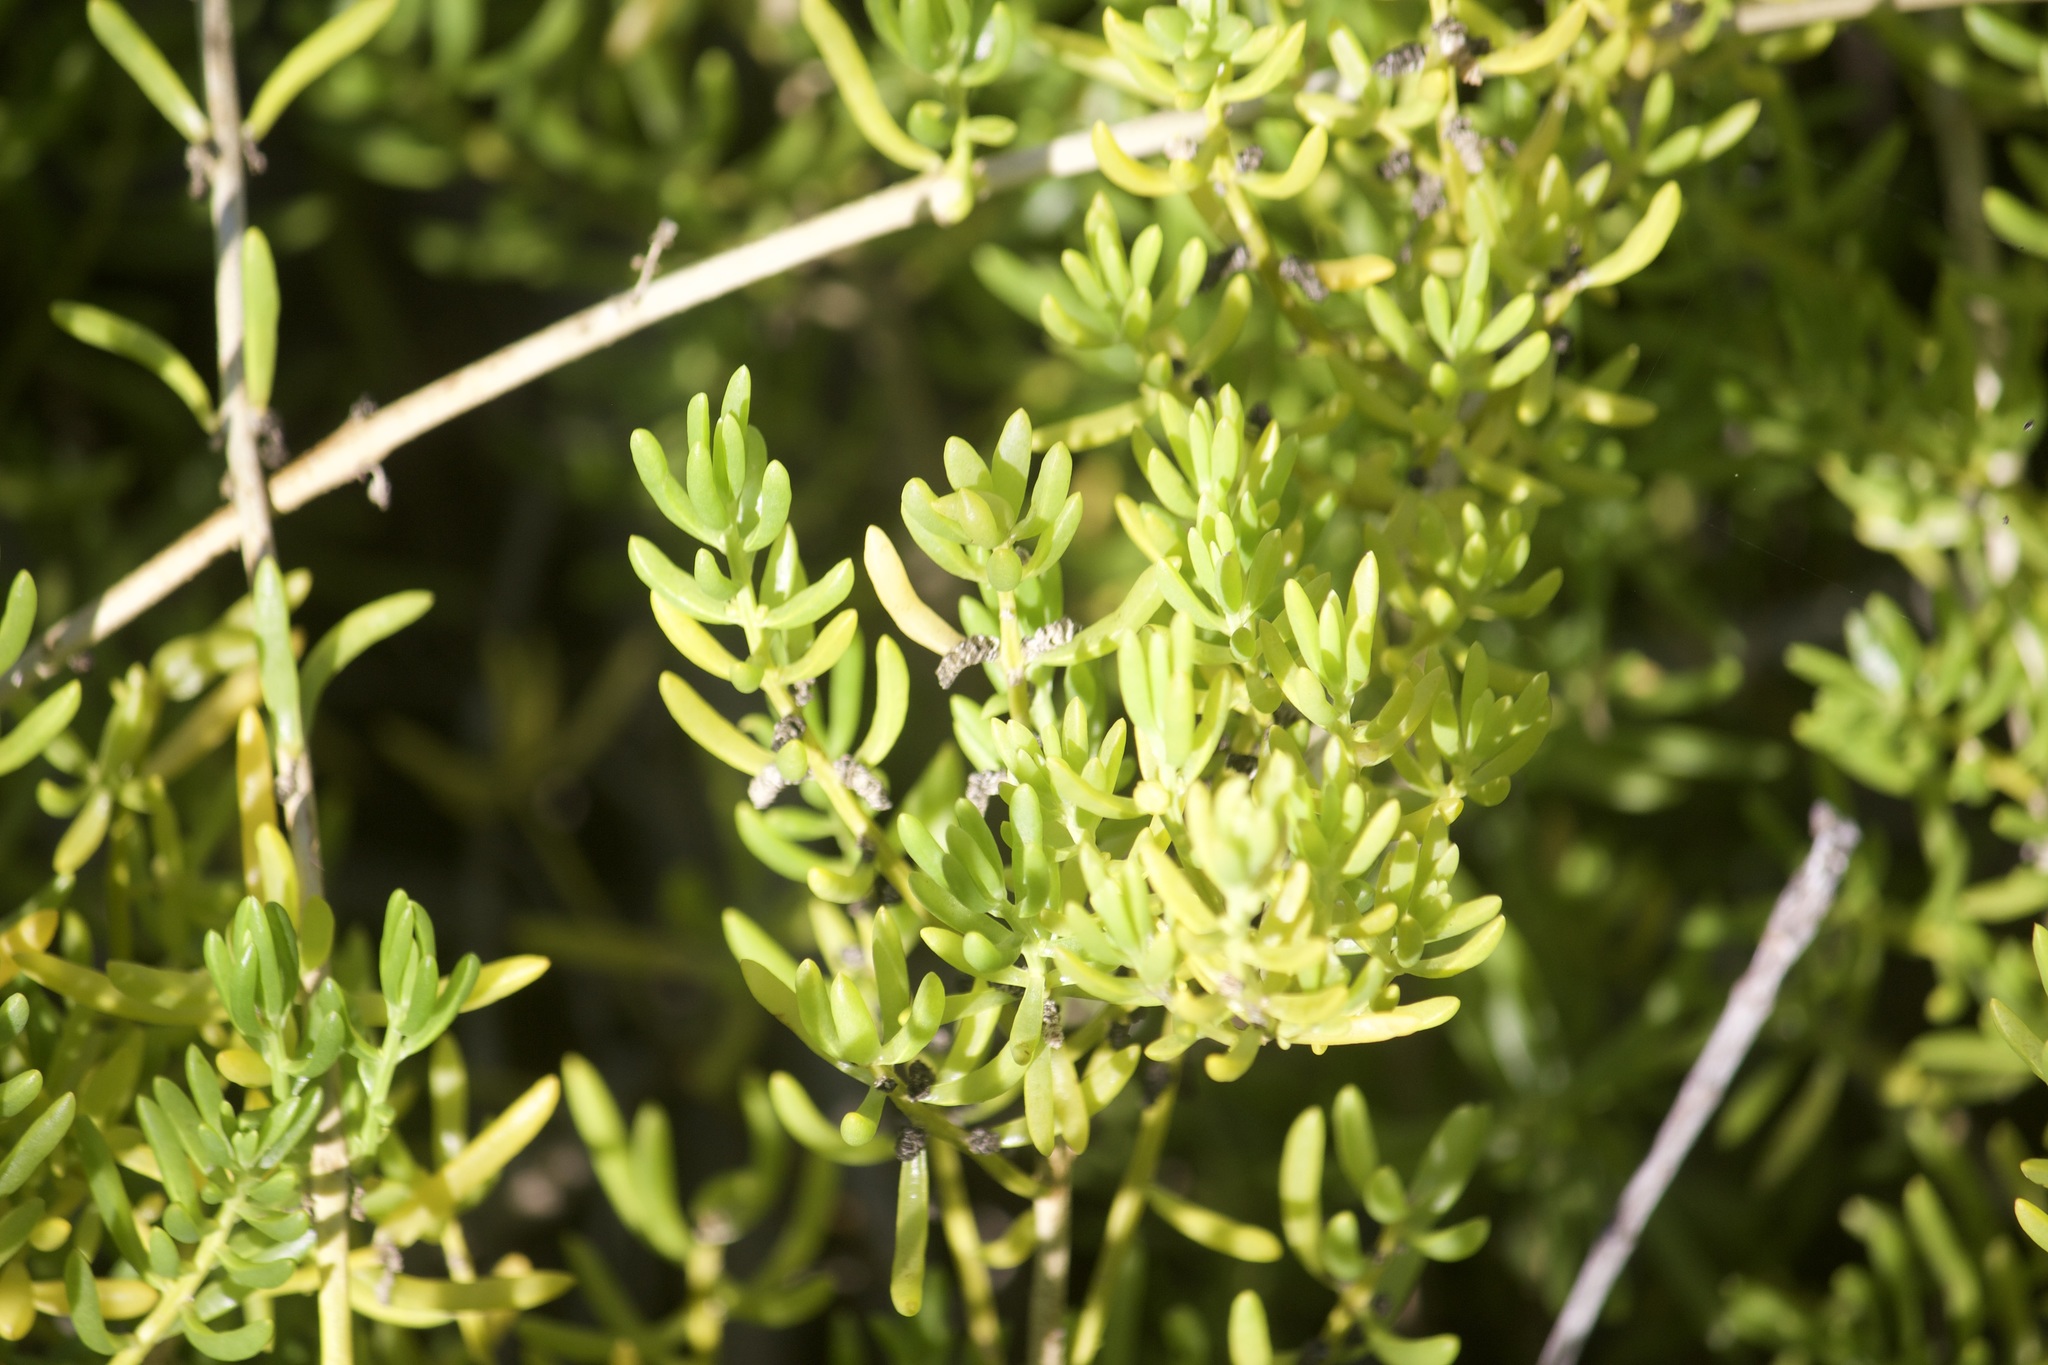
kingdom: Plantae
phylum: Tracheophyta
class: Magnoliopsida
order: Brassicales
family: Bataceae
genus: Batis
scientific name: Batis maritima
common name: Turtleweed
